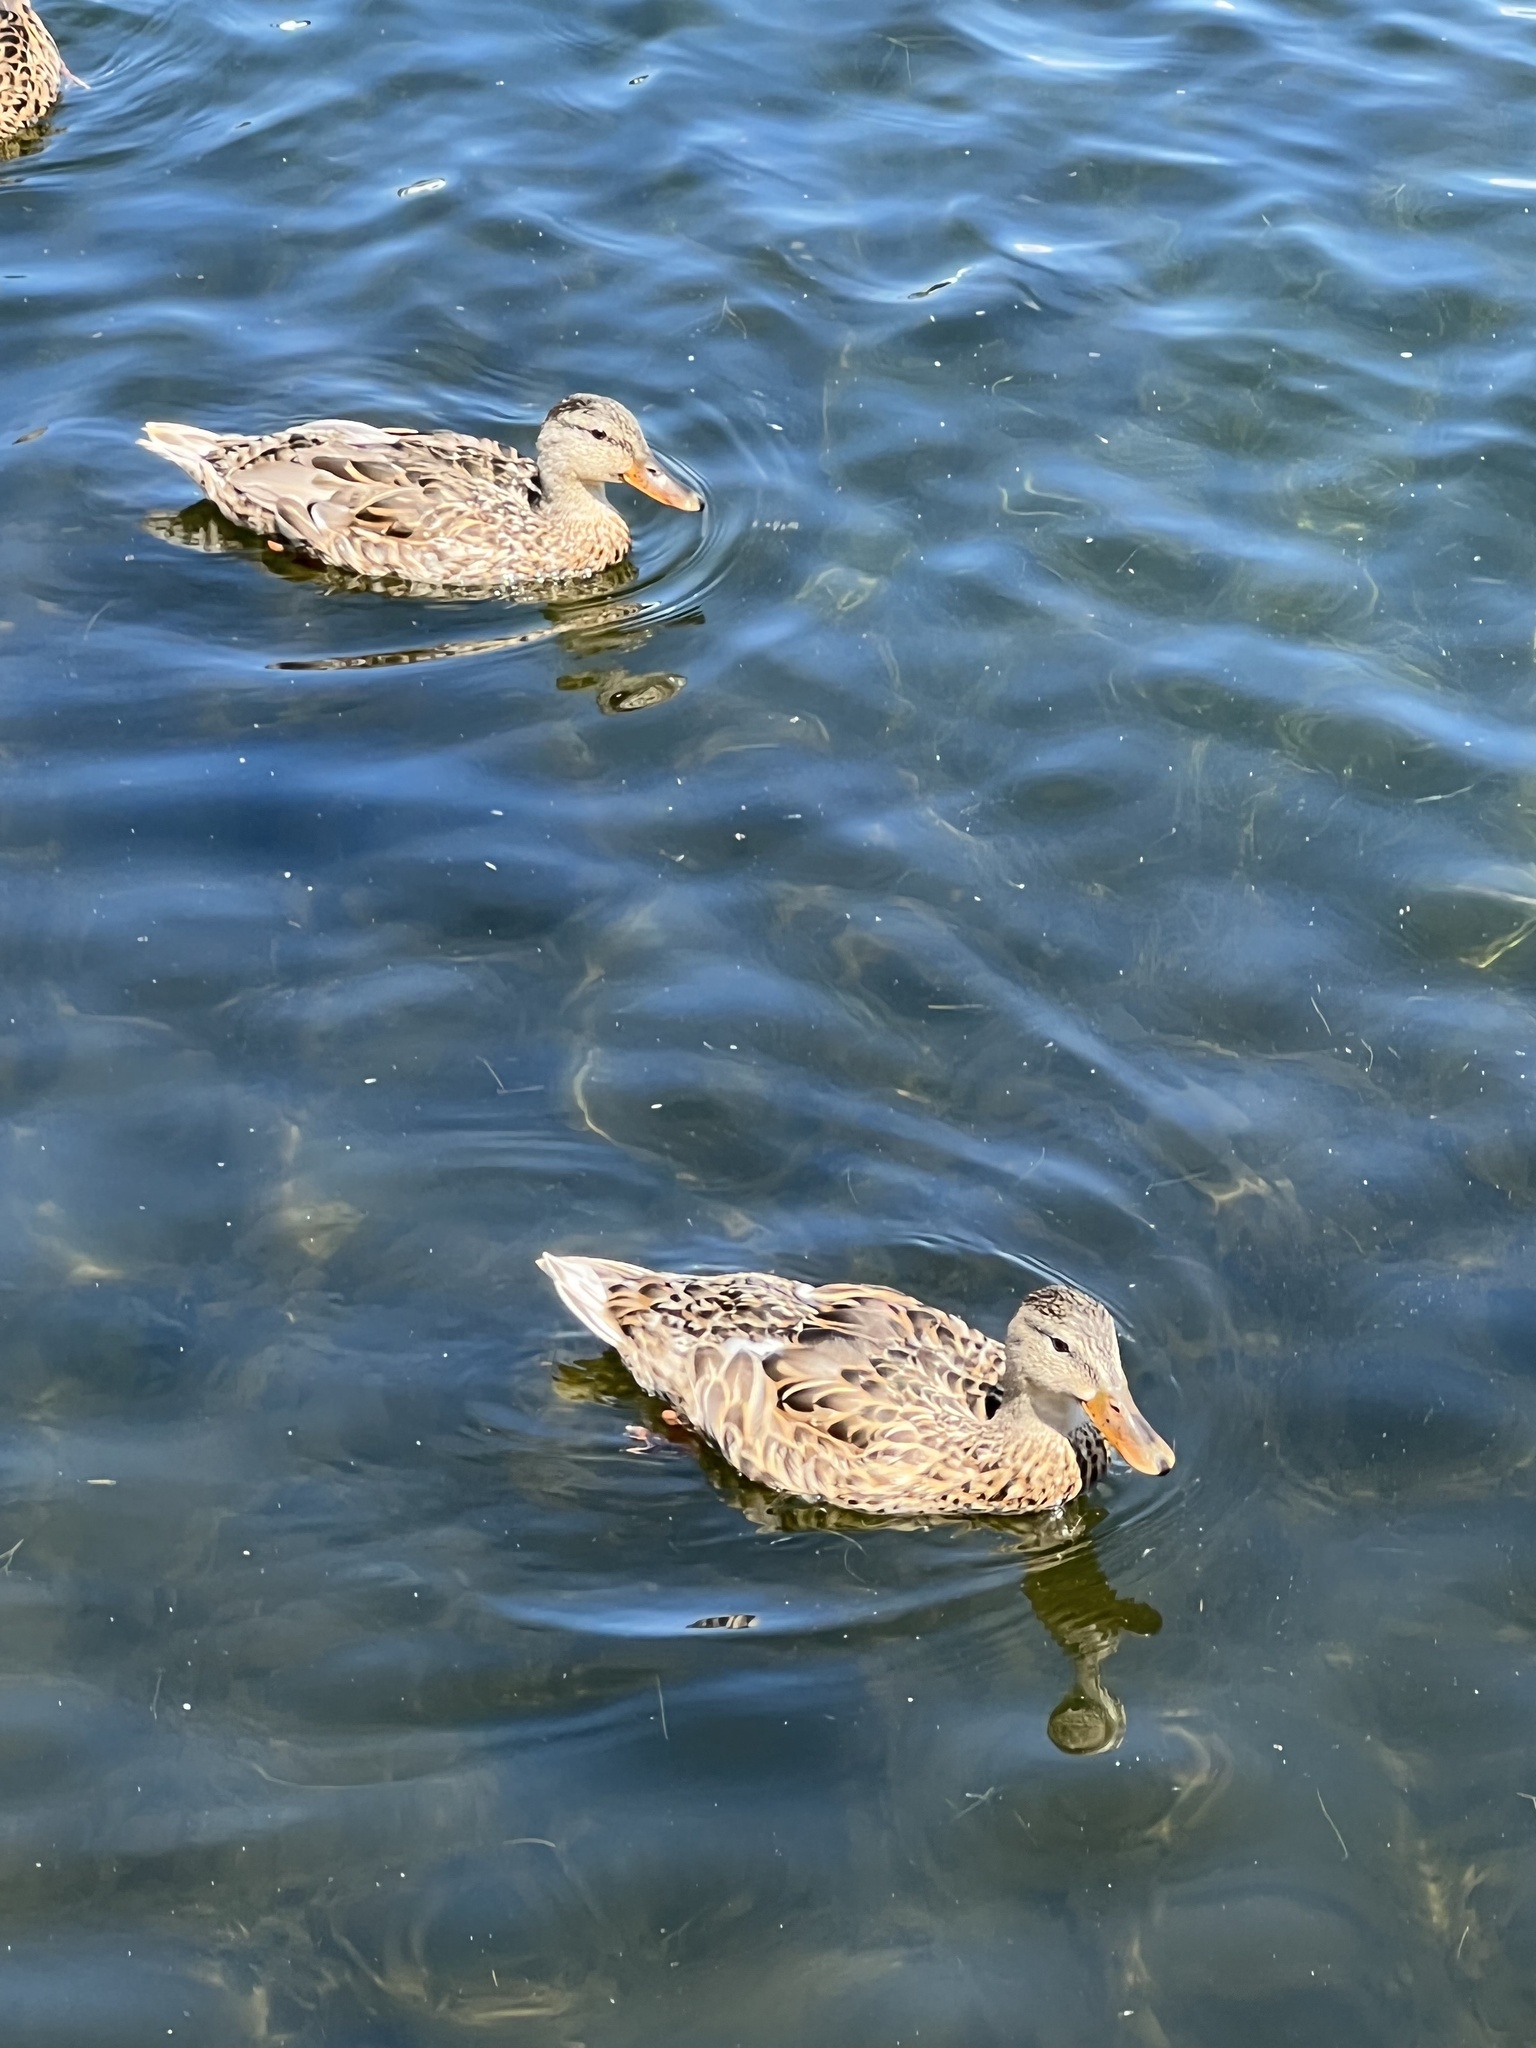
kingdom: Animalia
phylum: Chordata
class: Aves
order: Anseriformes
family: Anatidae
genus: Anas
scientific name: Anas platyrhynchos
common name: Mallard
